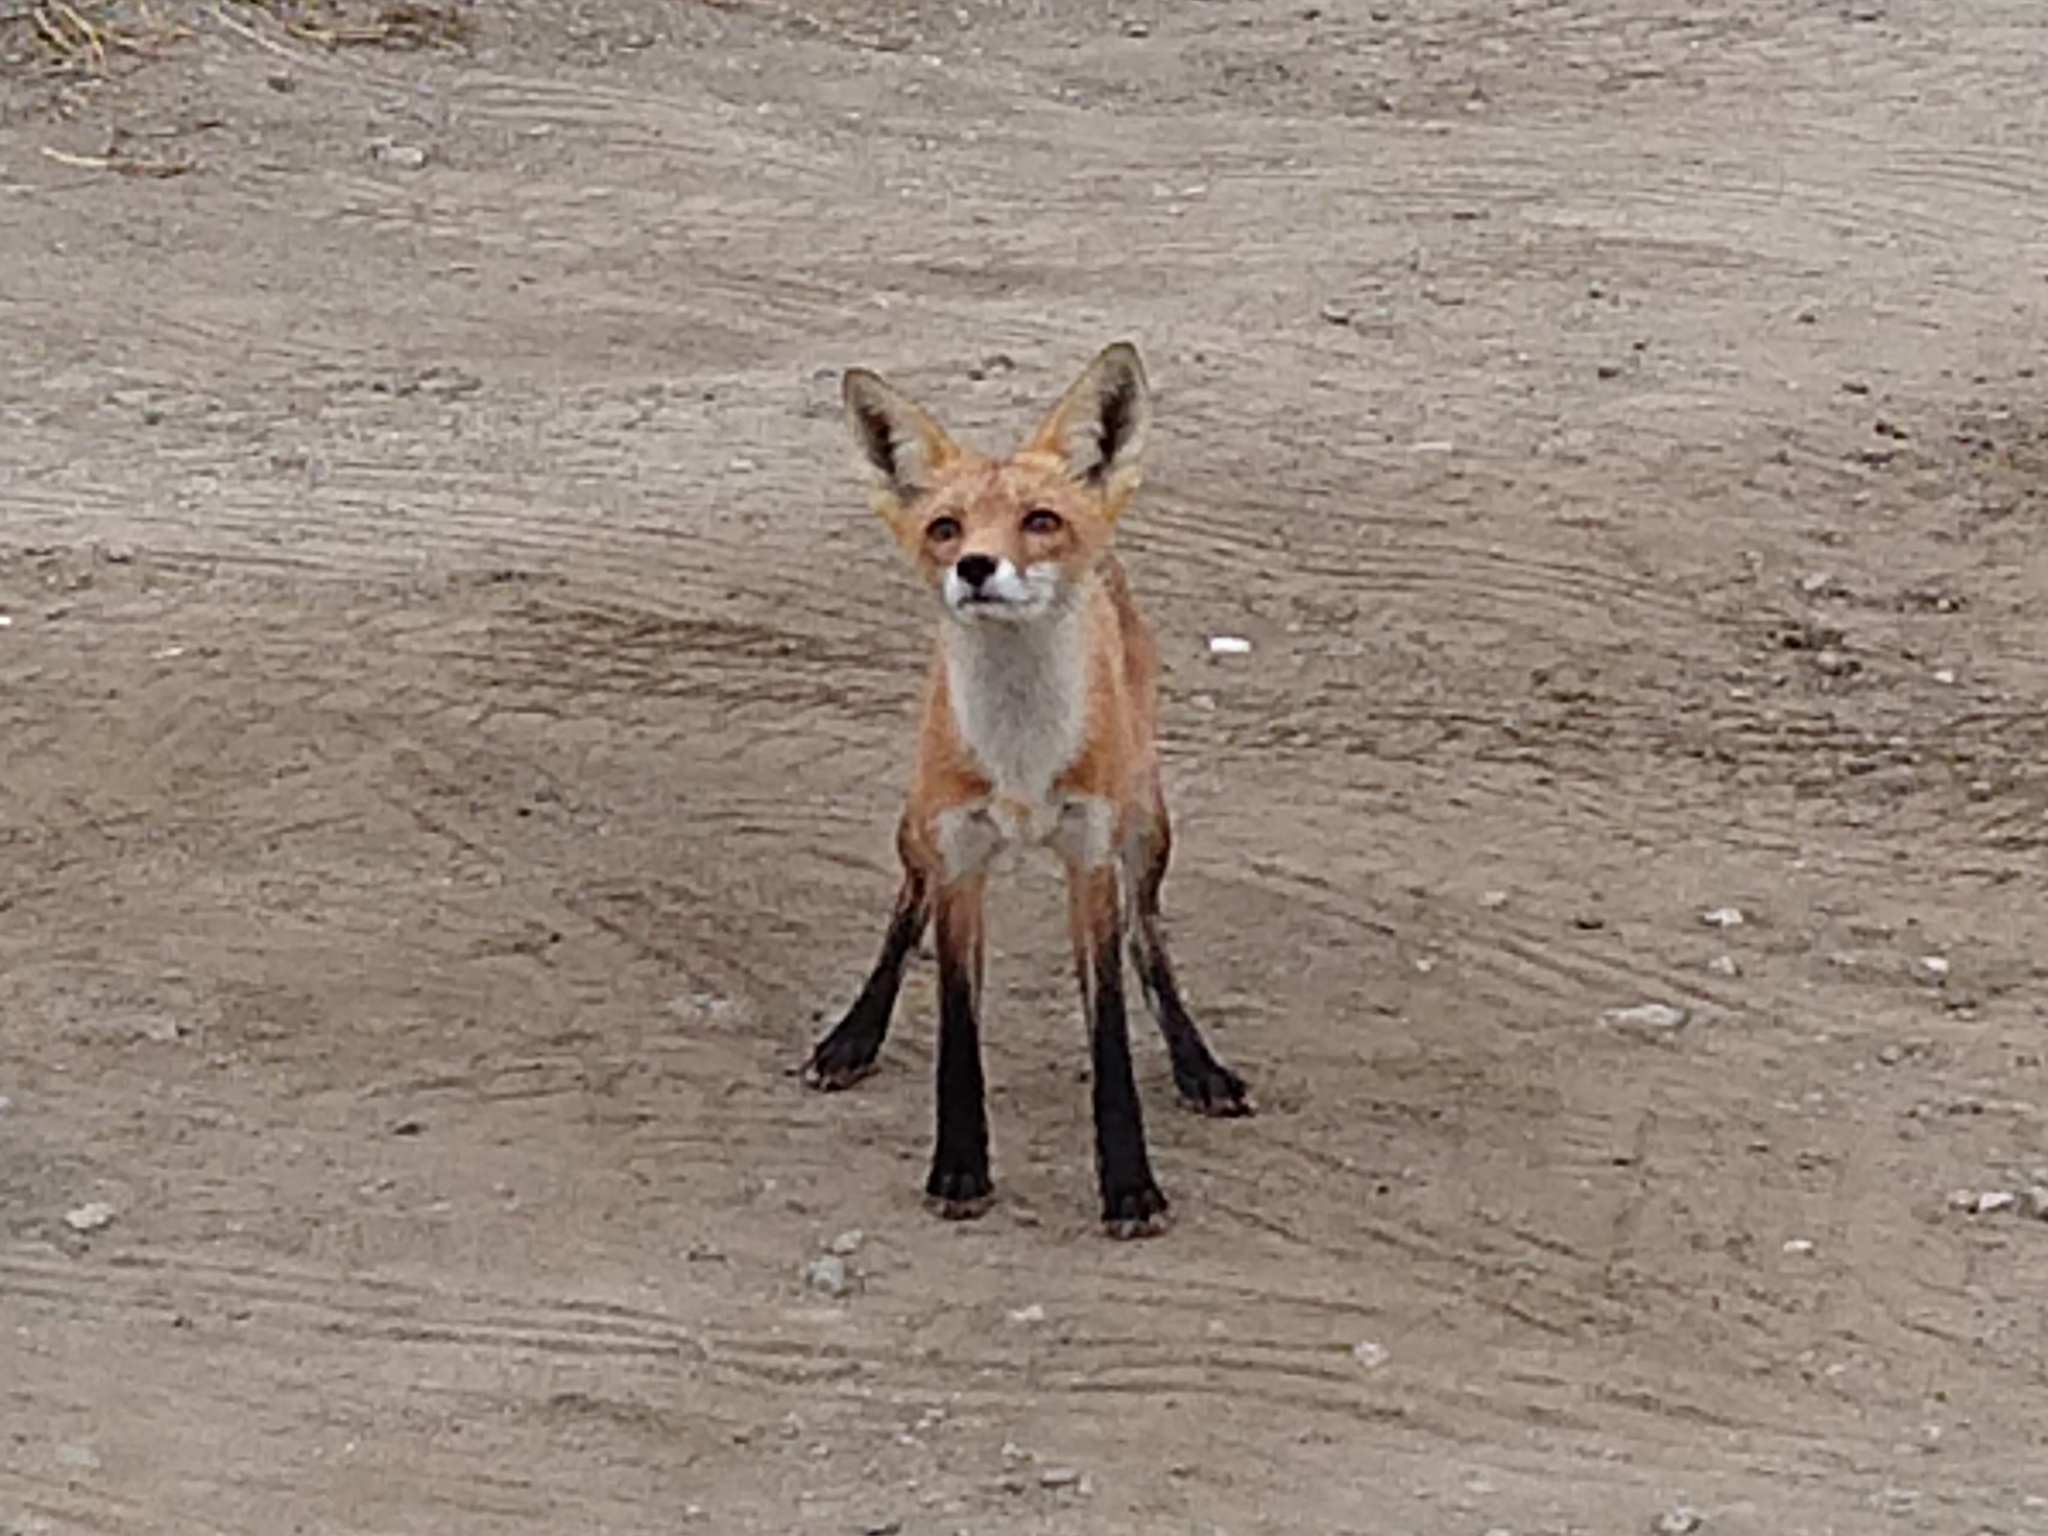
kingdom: Animalia
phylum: Chordata
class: Mammalia
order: Carnivora
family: Canidae
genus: Vulpes
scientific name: Vulpes vulpes
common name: Red fox
